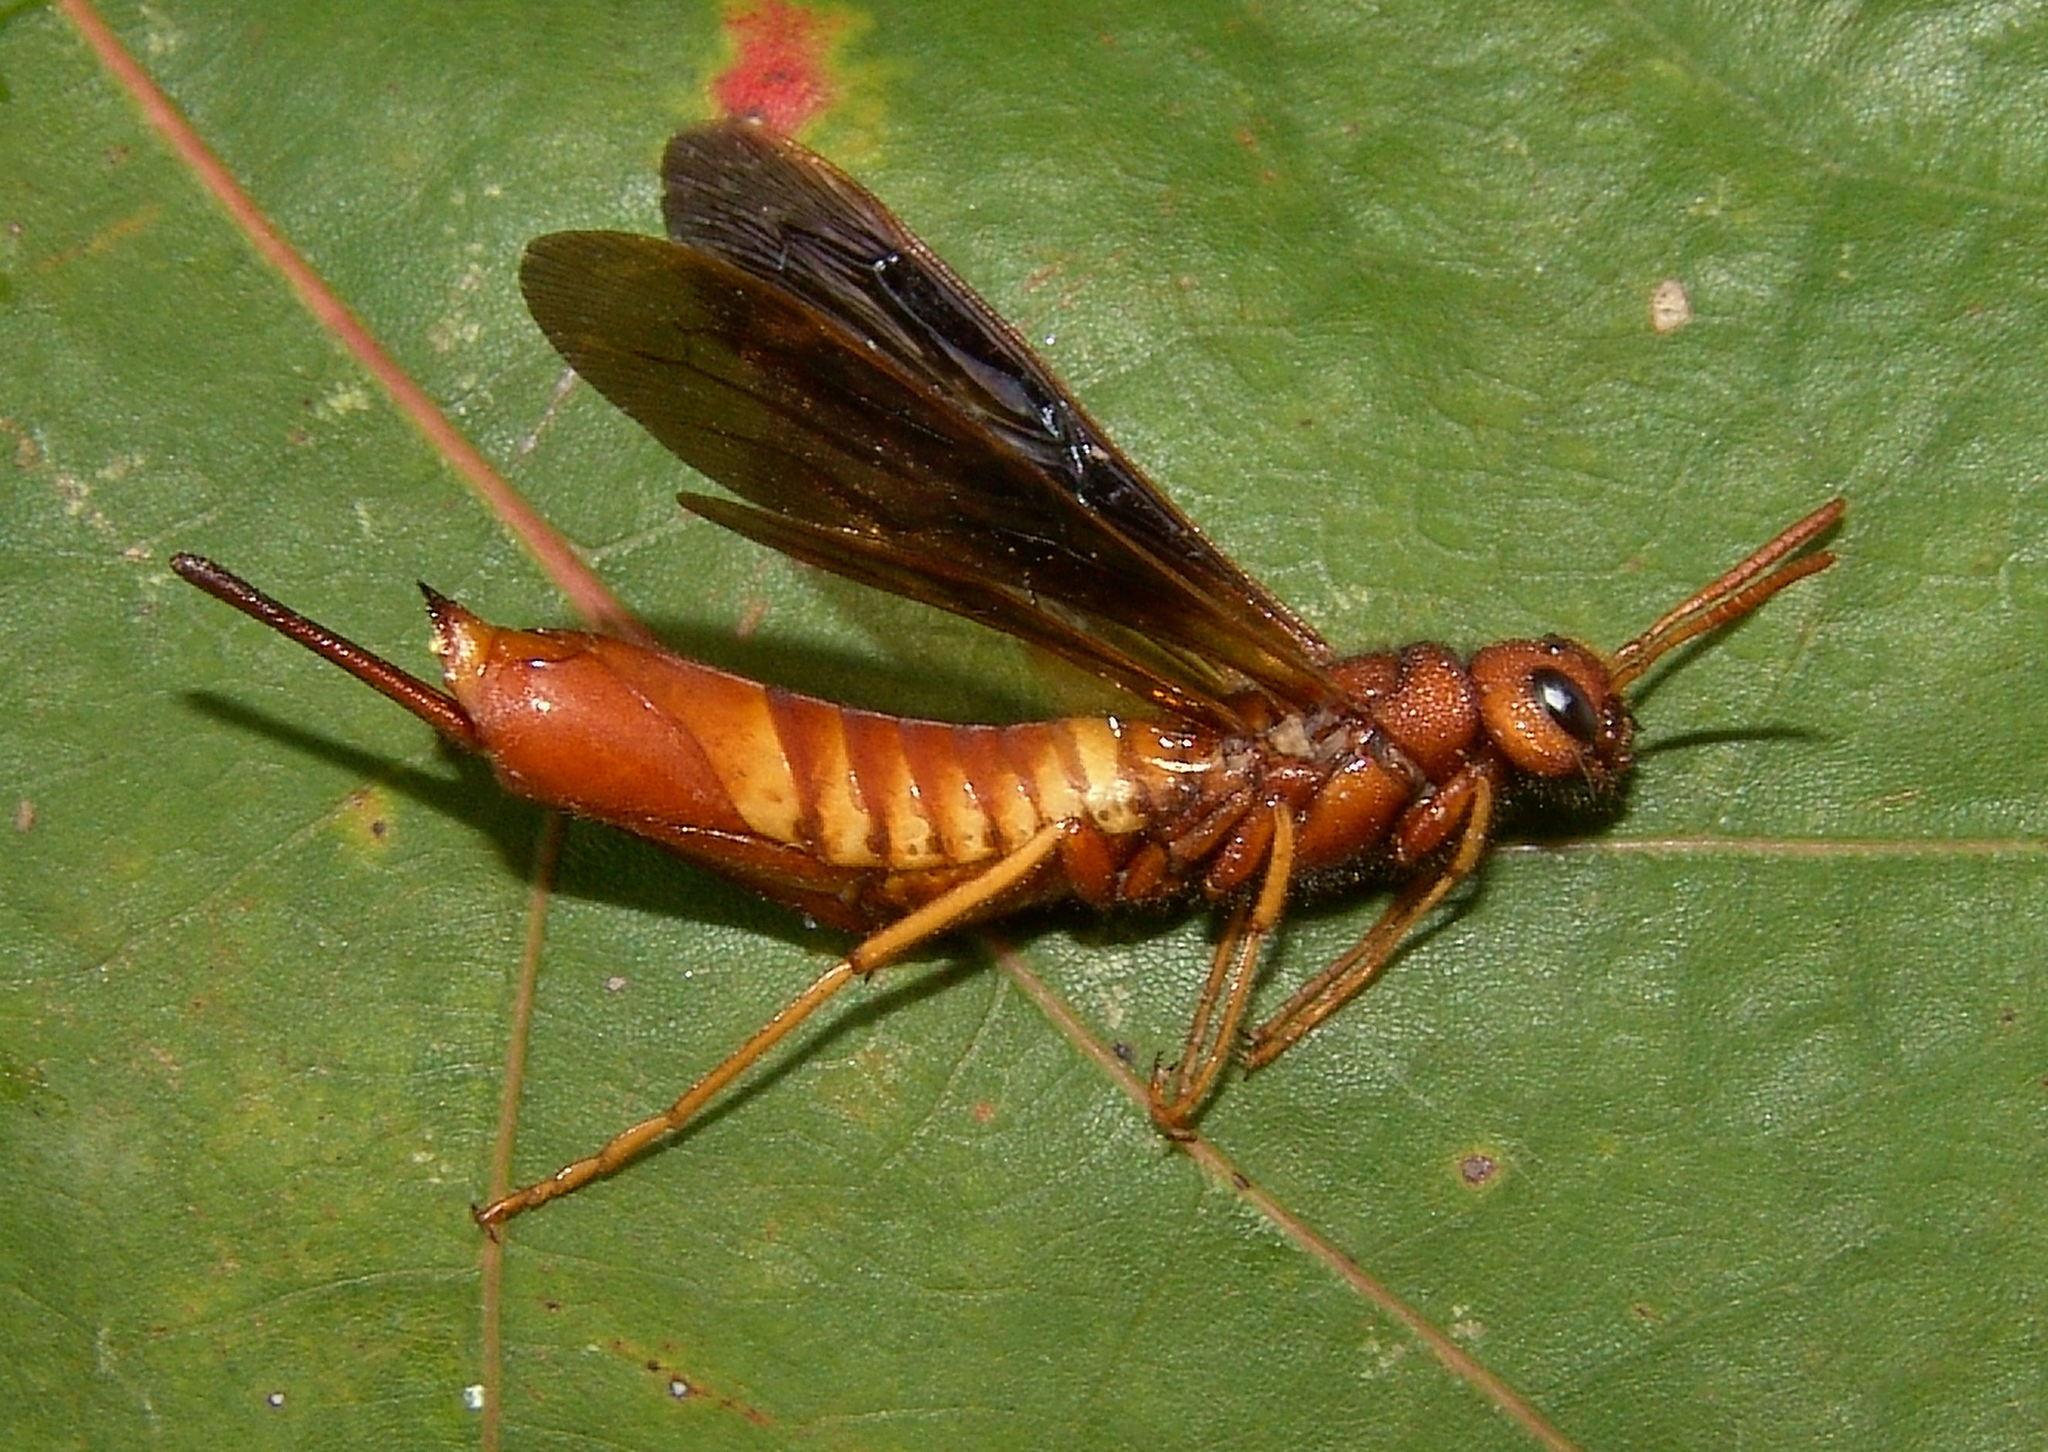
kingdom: Animalia
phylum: Arthropoda
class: Insecta
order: Hymenoptera
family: Siricidae
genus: Tremex
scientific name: Tremex columba
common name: Wasp
